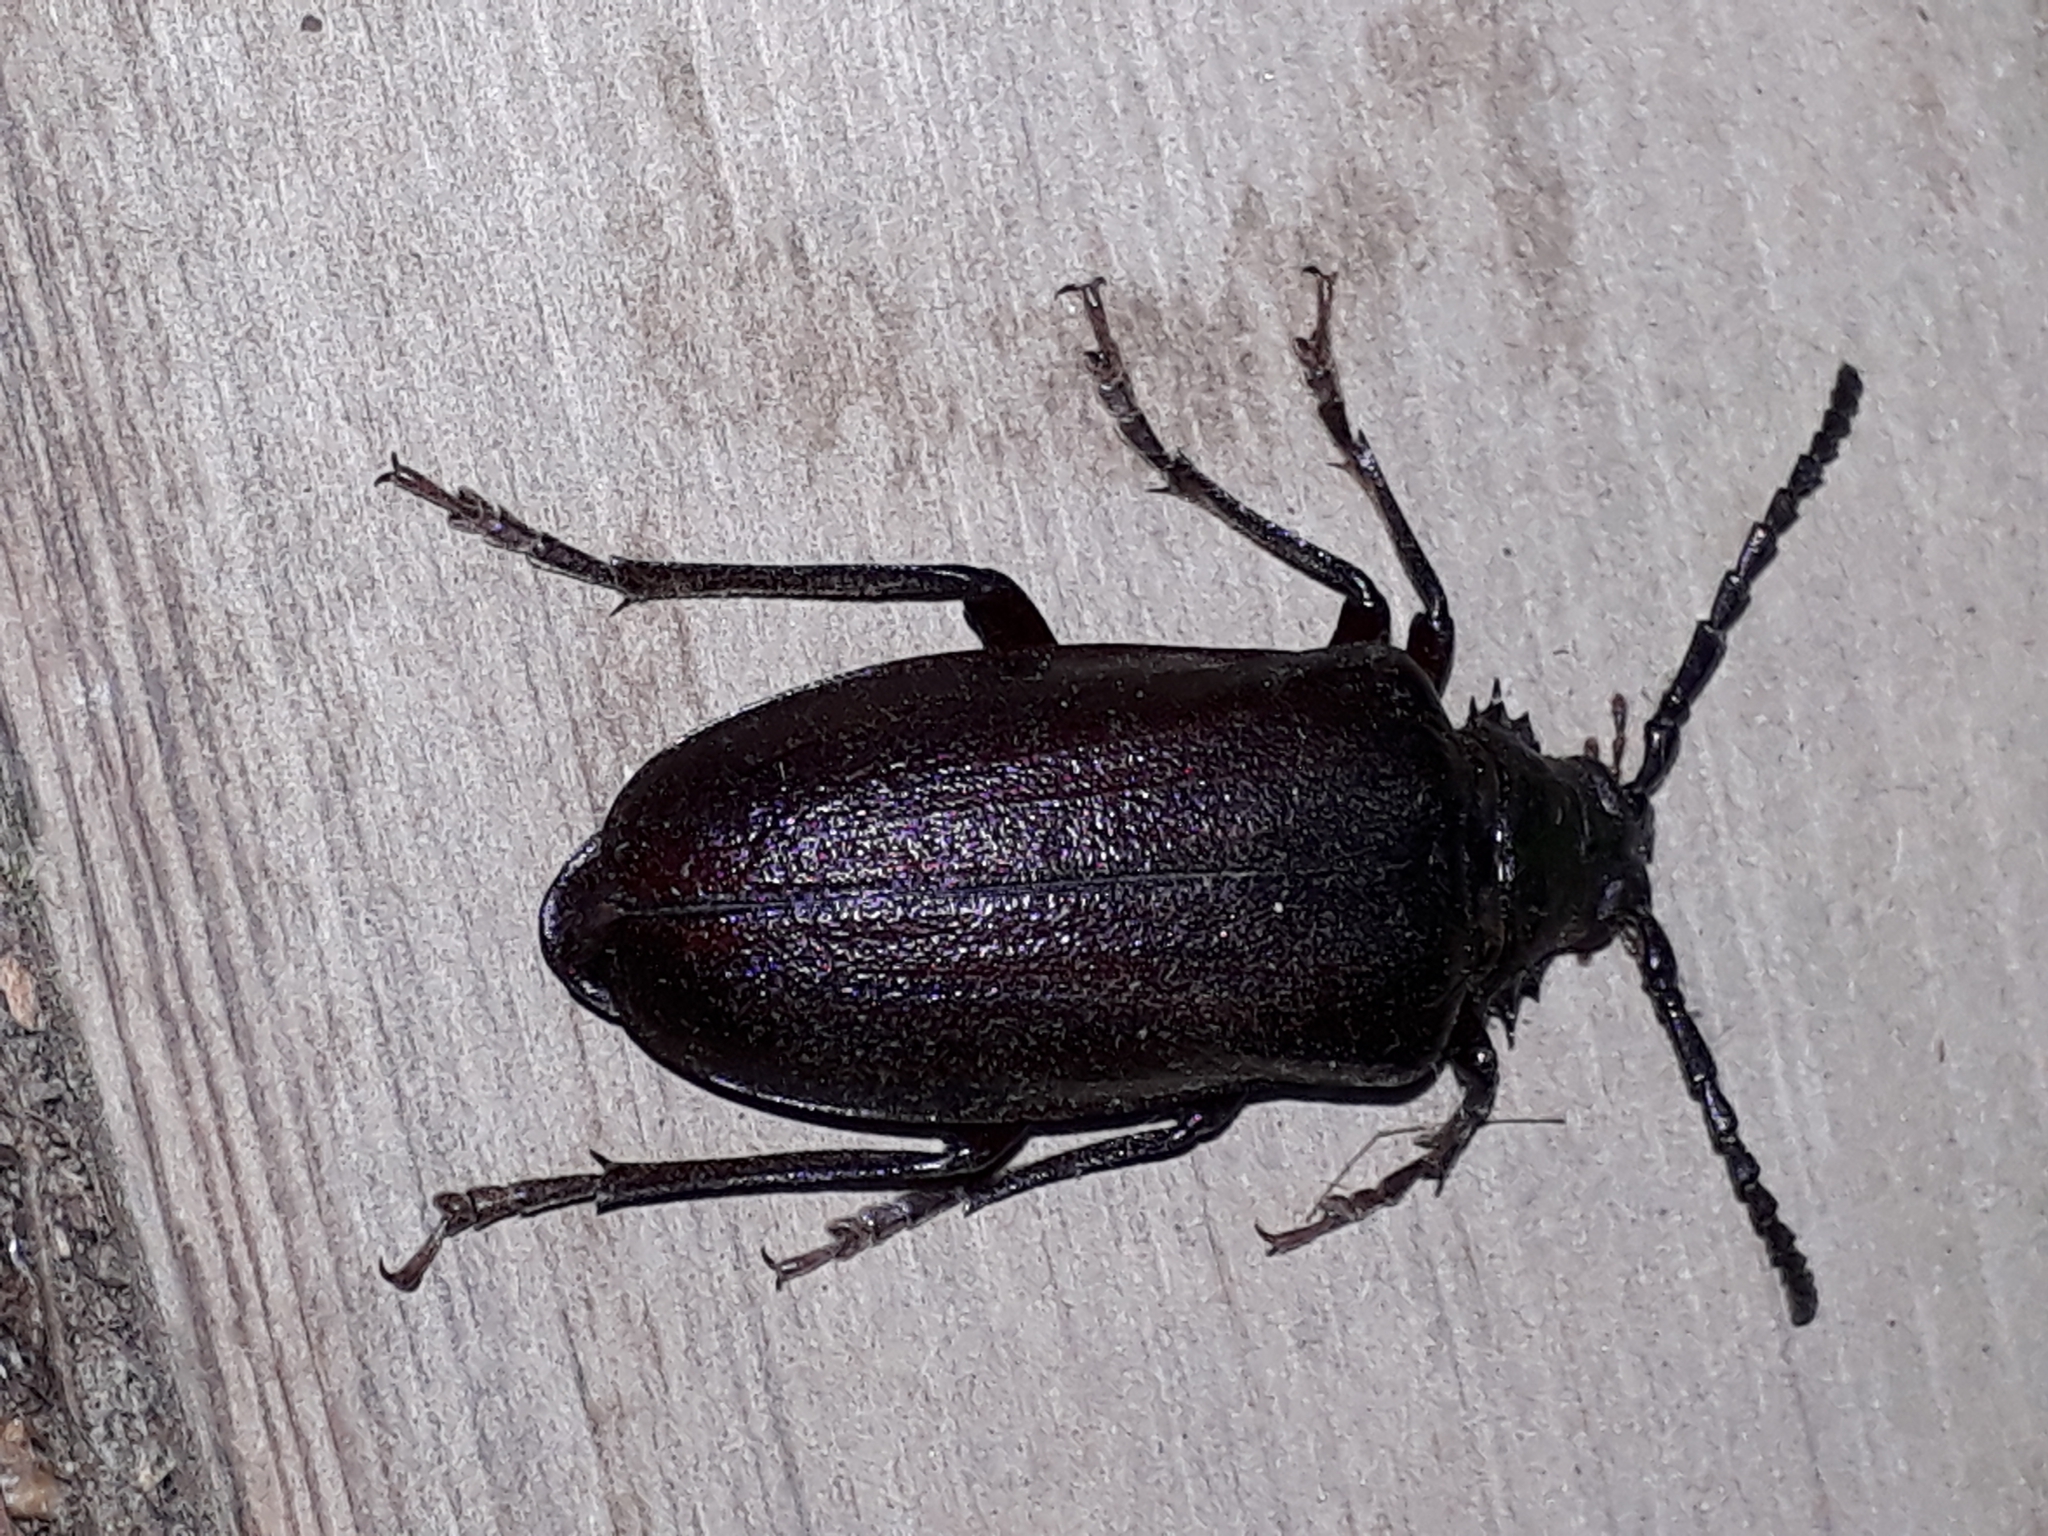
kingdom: Animalia
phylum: Arthropoda
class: Insecta
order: Coleoptera
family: Cerambycidae
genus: Prionus
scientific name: Prionus coriarius
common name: Tanner beetle
